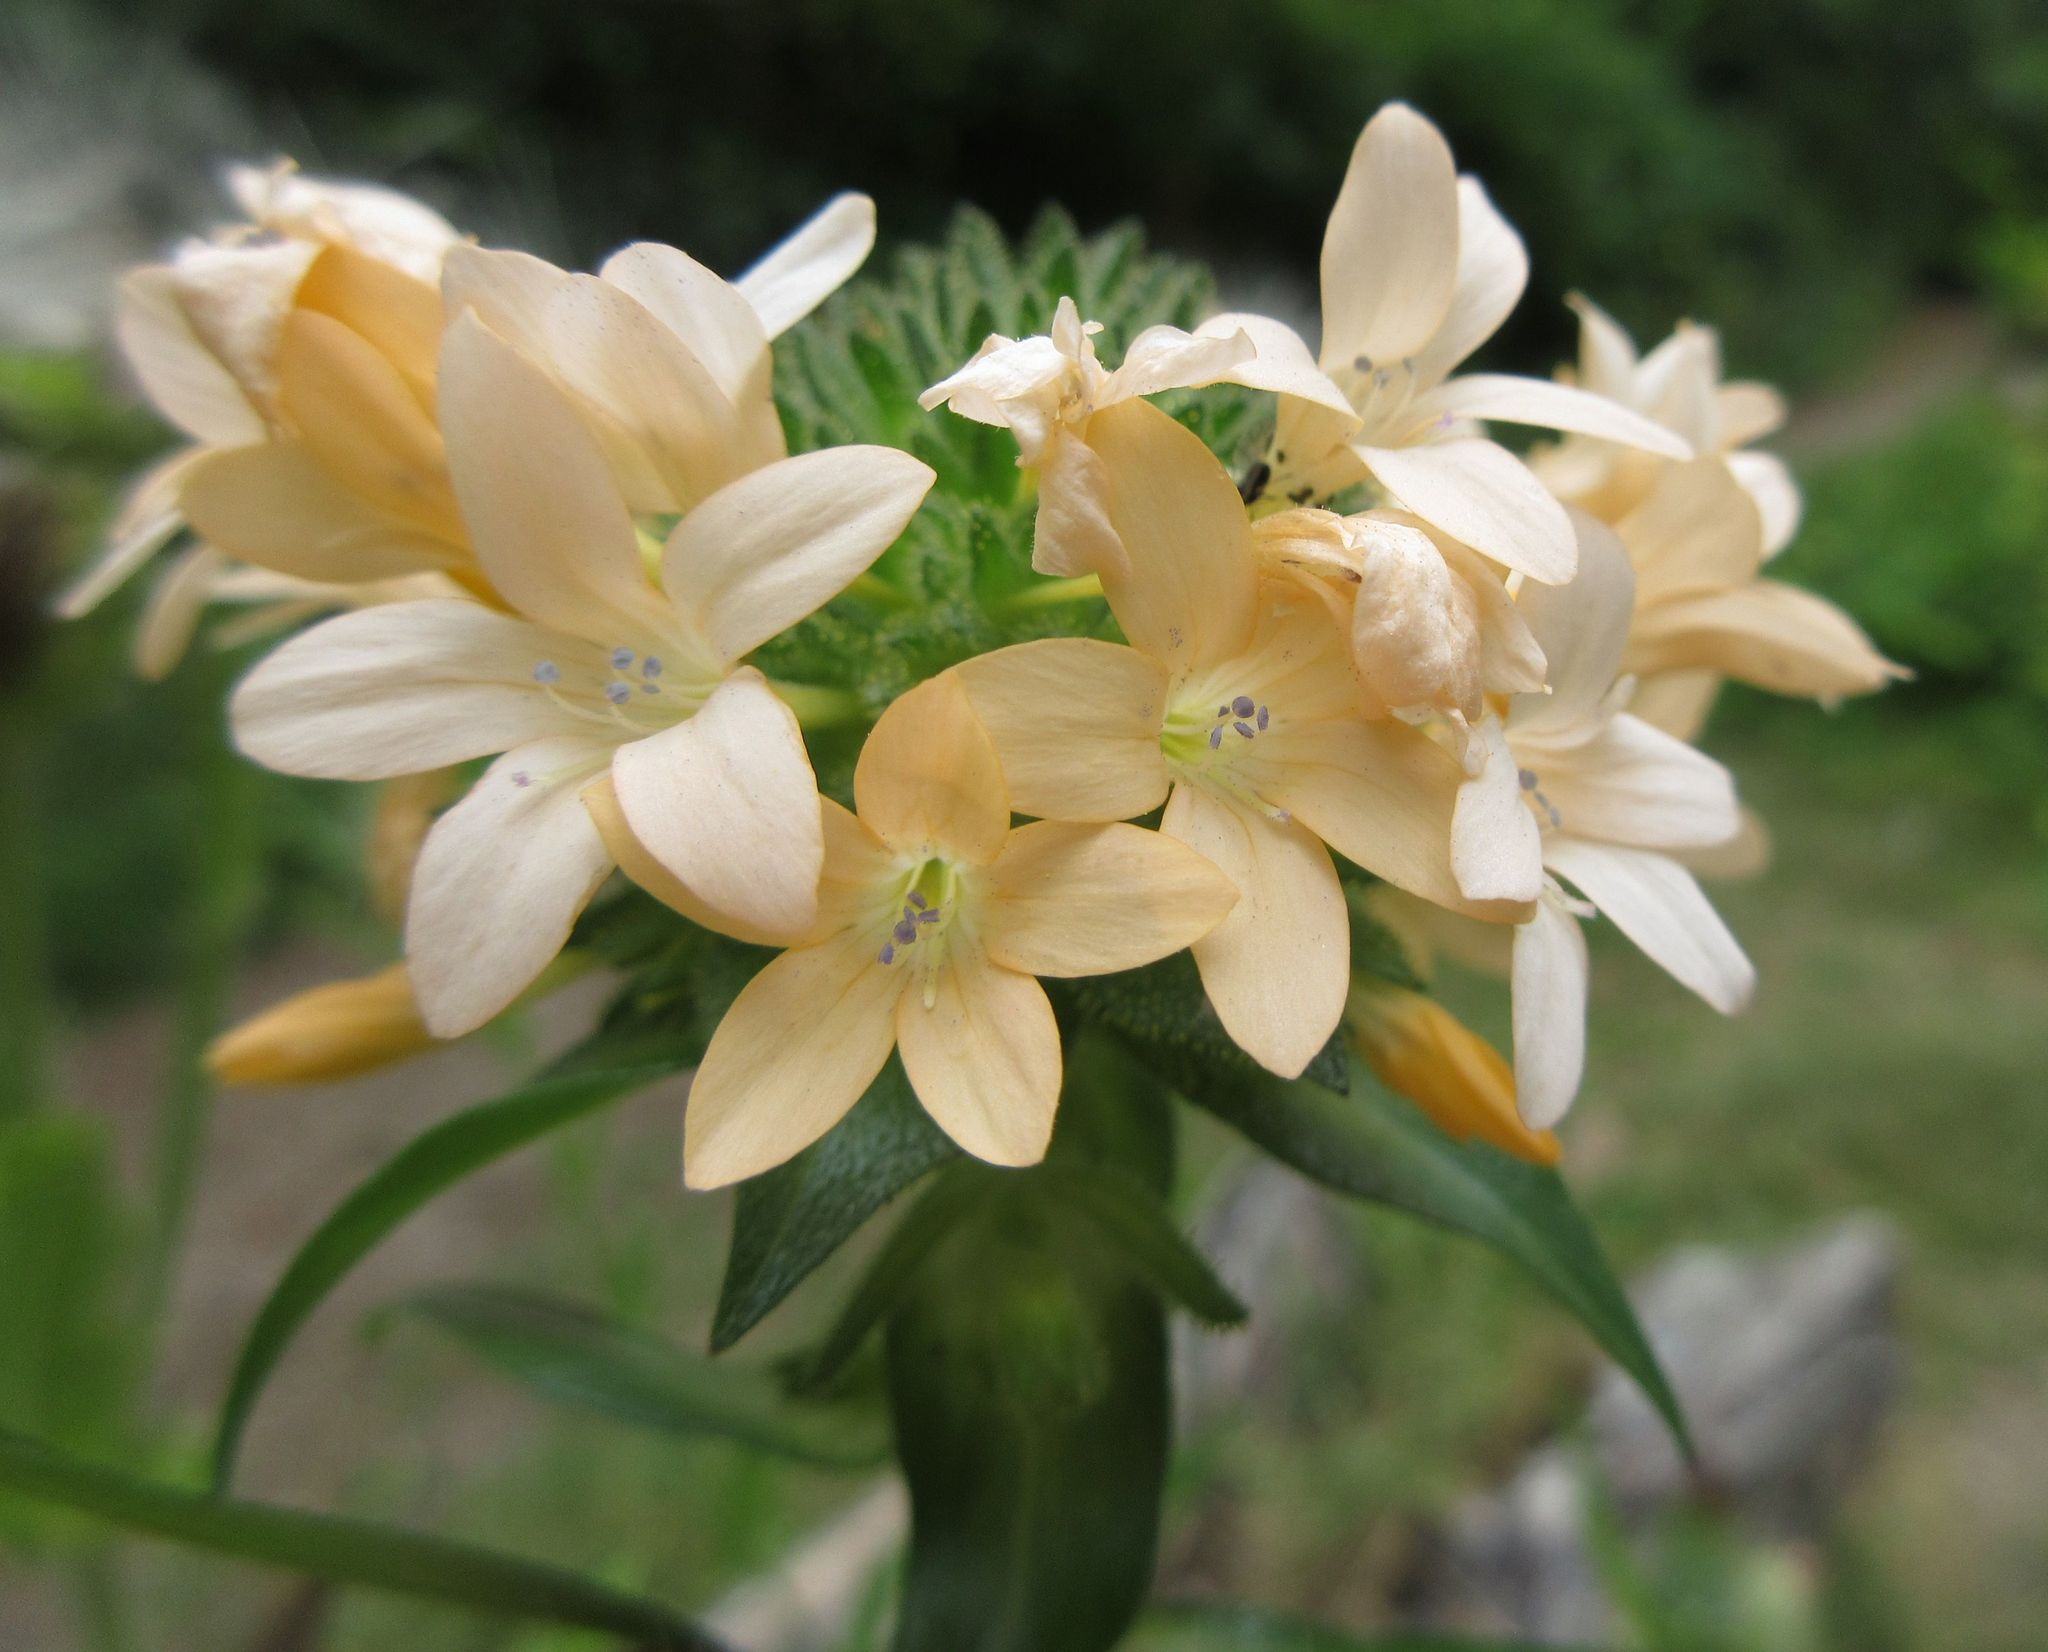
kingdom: Plantae
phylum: Tracheophyta
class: Magnoliopsida
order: Ericales
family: Polemoniaceae
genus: Collomia
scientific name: Collomia grandiflora
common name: California strawflower
